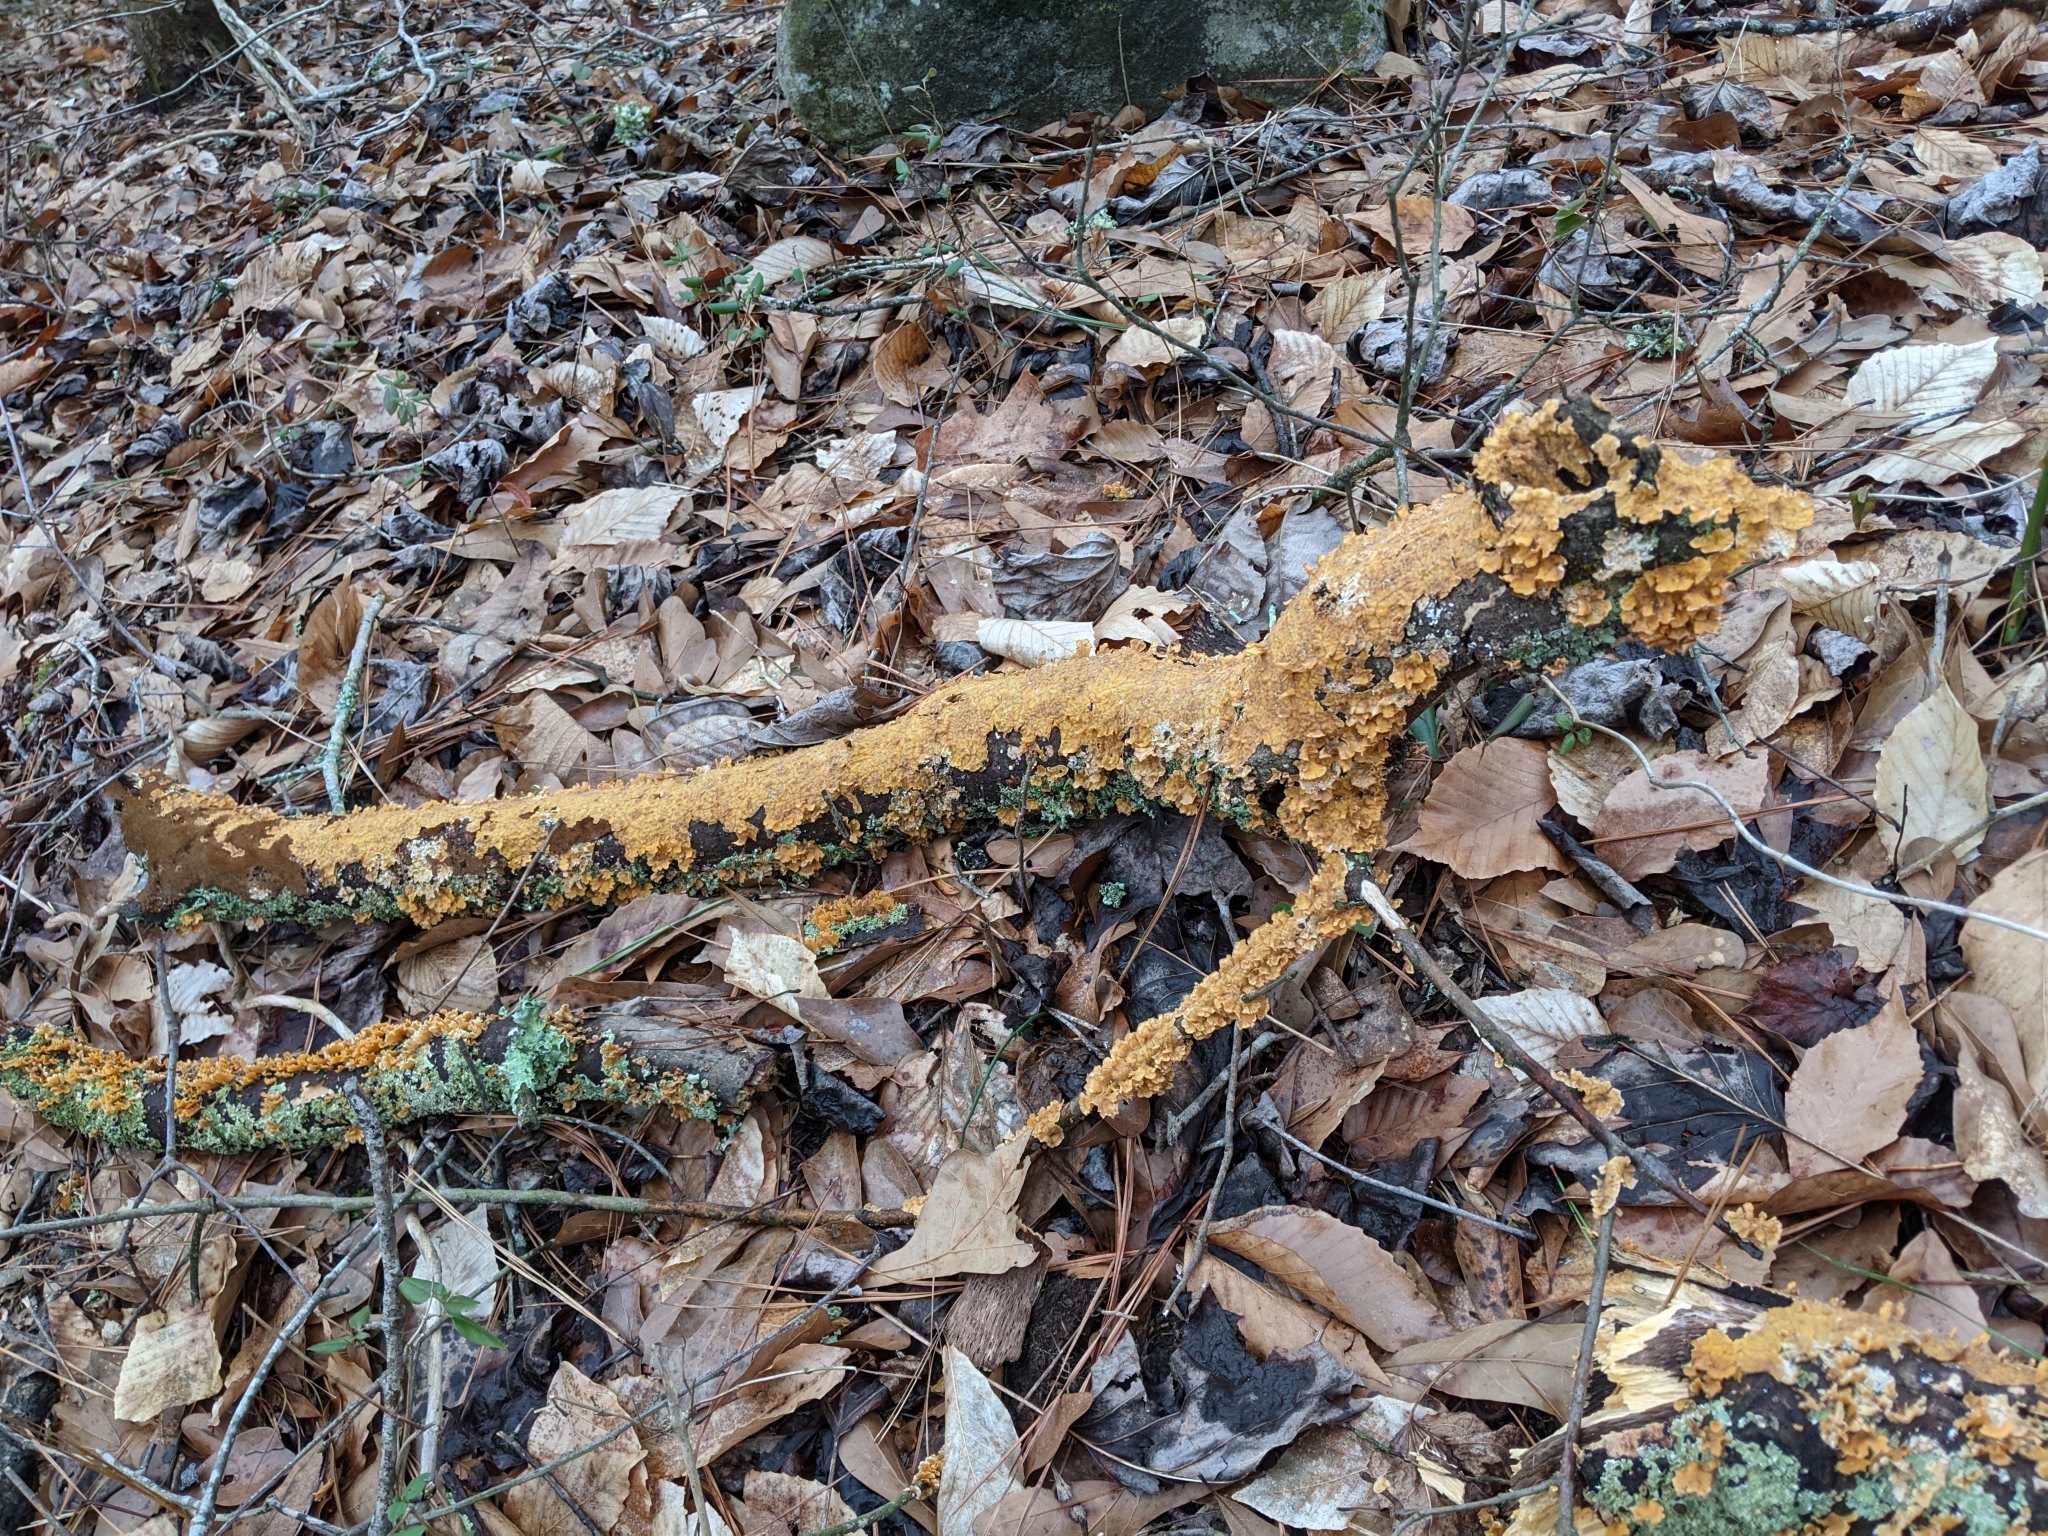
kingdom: Fungi
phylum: Basidiomycota
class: Agaricomycetes
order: Russulales
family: Stereaceae
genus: Stereum
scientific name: Stereum complicatum
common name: Crowded parchment
